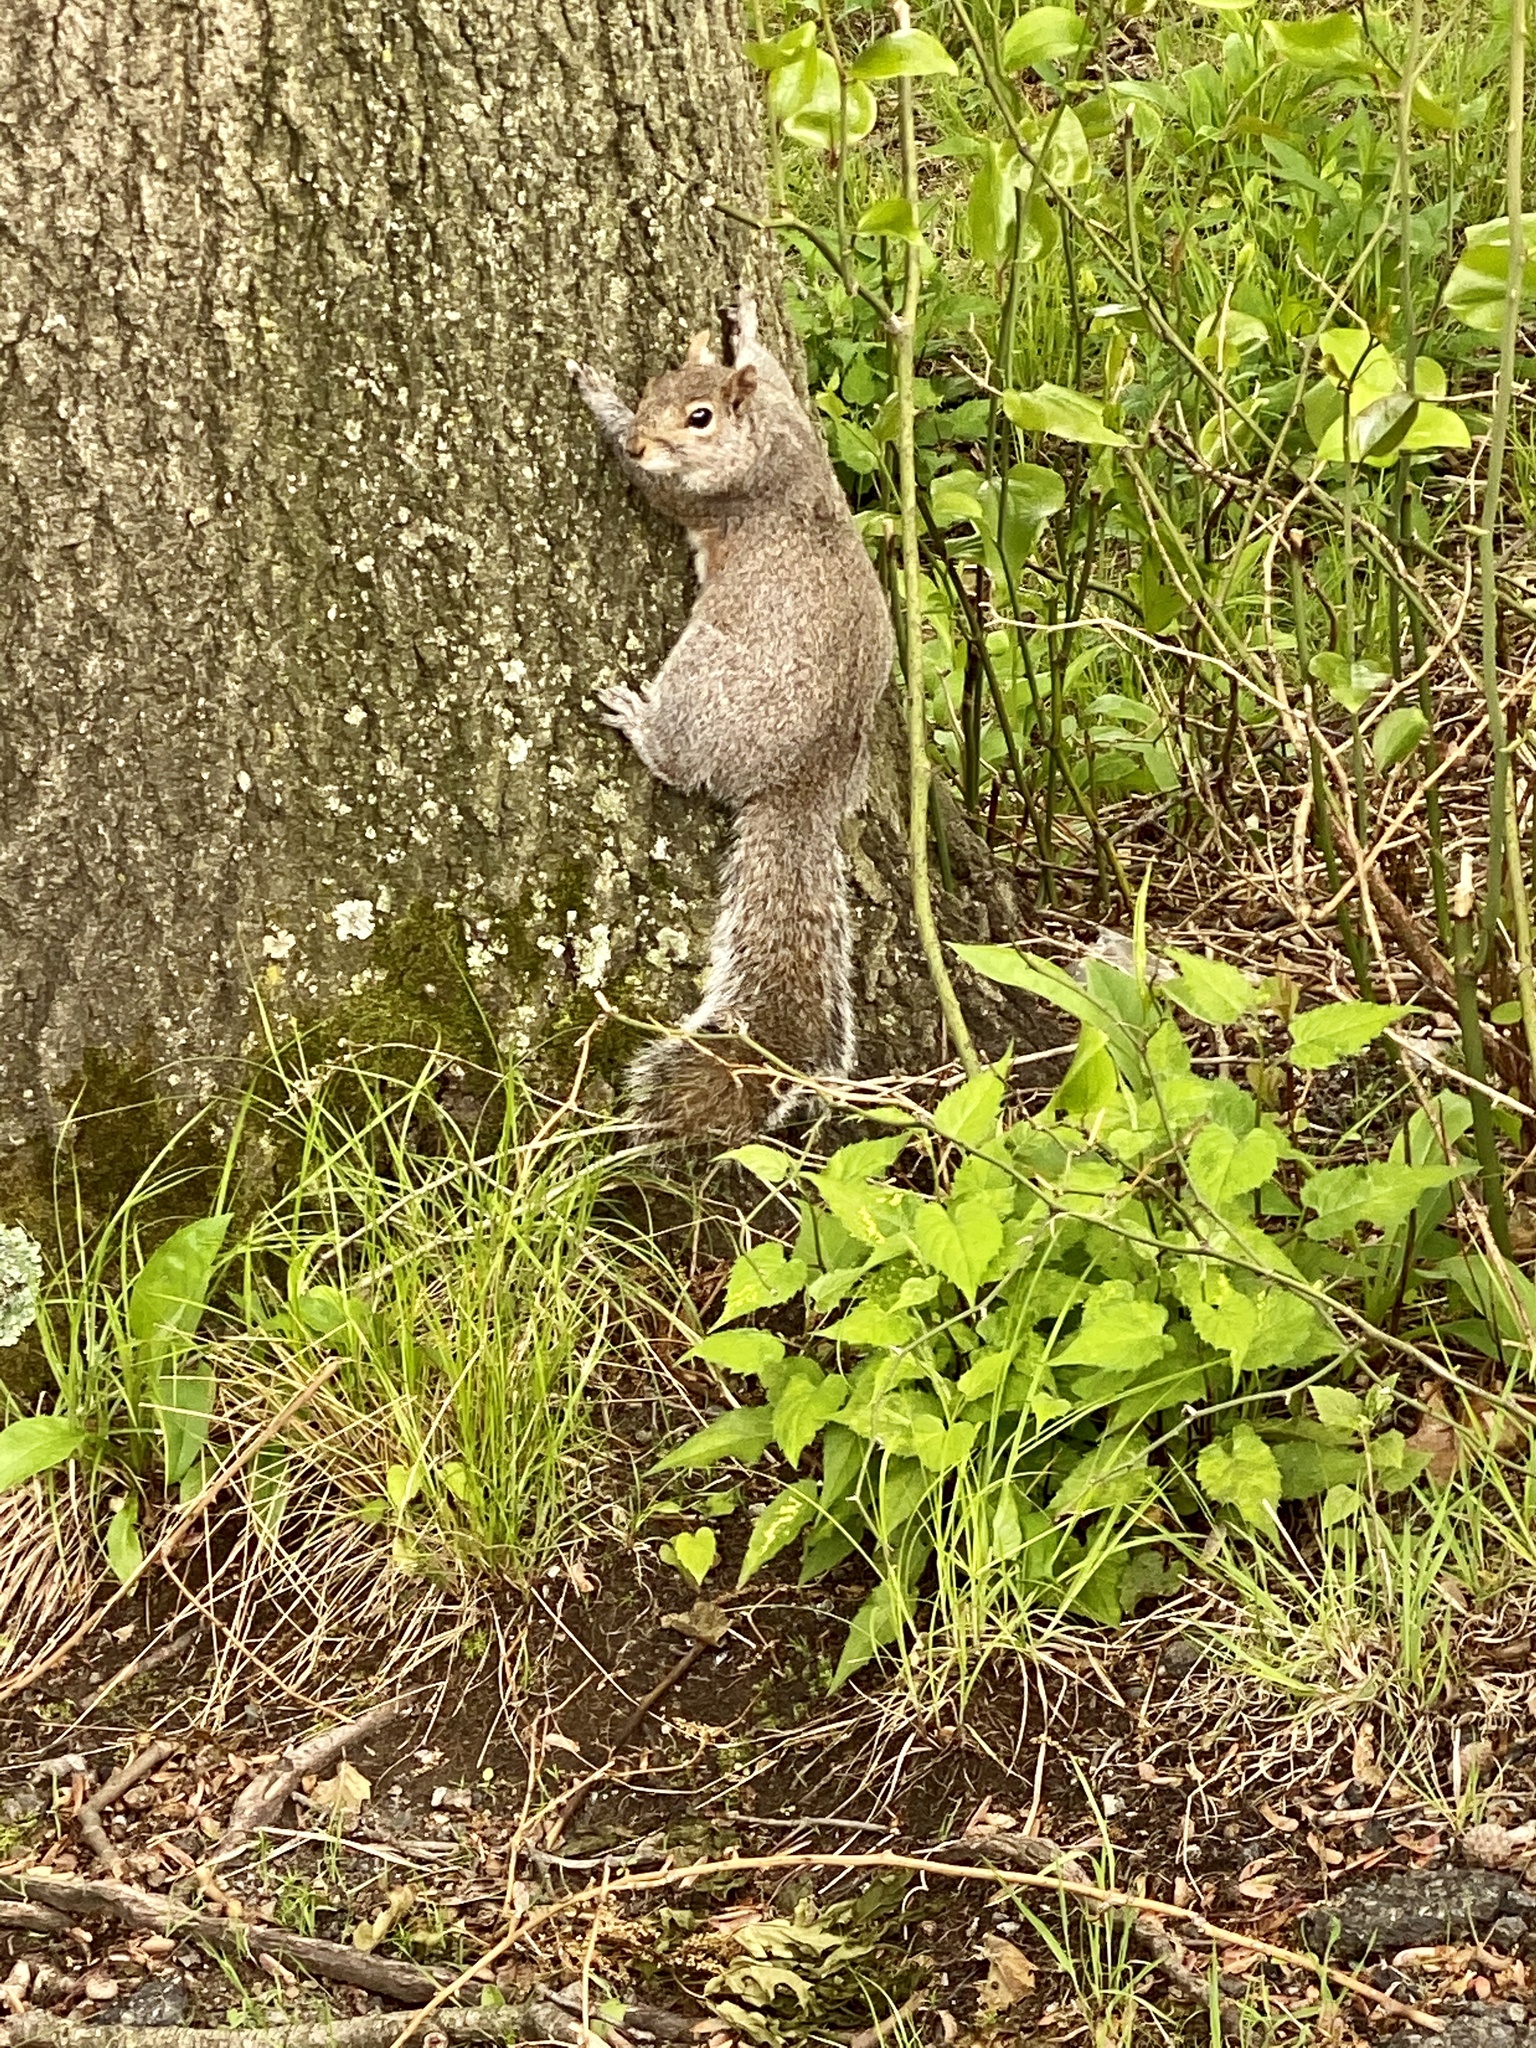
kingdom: Animalia
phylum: Chordata
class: Mammalia
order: Rodentia
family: Sciuridae
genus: Sciurus
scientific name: Sciurus carolinensis
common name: Eastern gray squirrel
